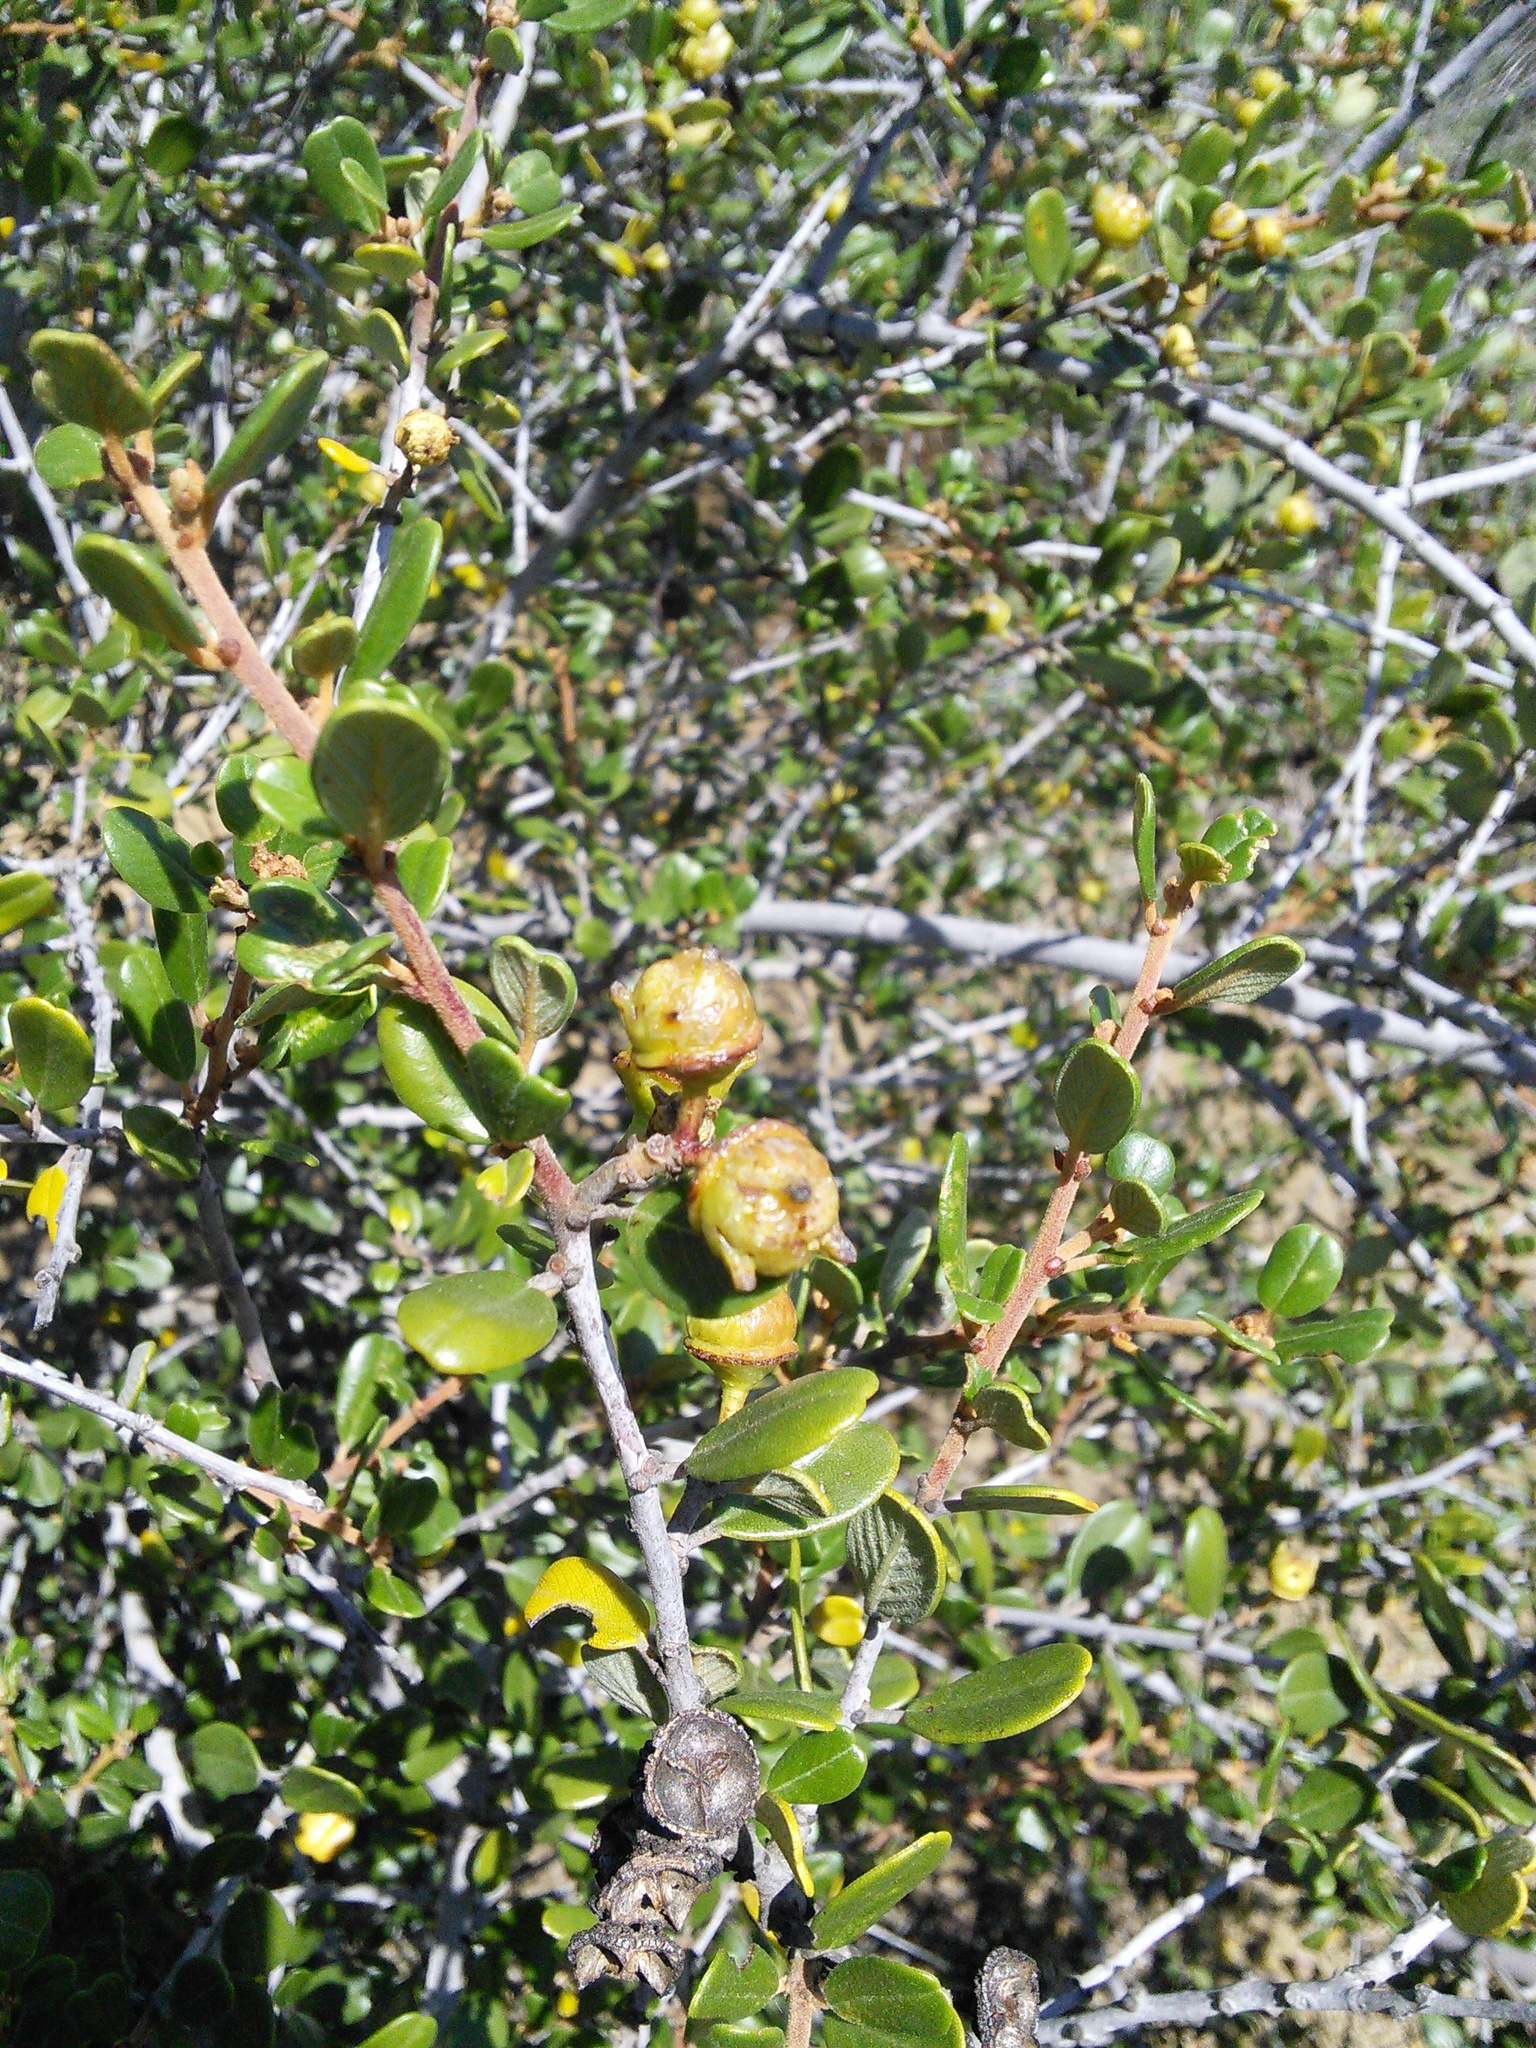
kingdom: Plantae
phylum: Tracheophyta
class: Magnoliopsida
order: Rosales
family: Rhamnaceae
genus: Ceanothus
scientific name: Ceanothus megacarpus
